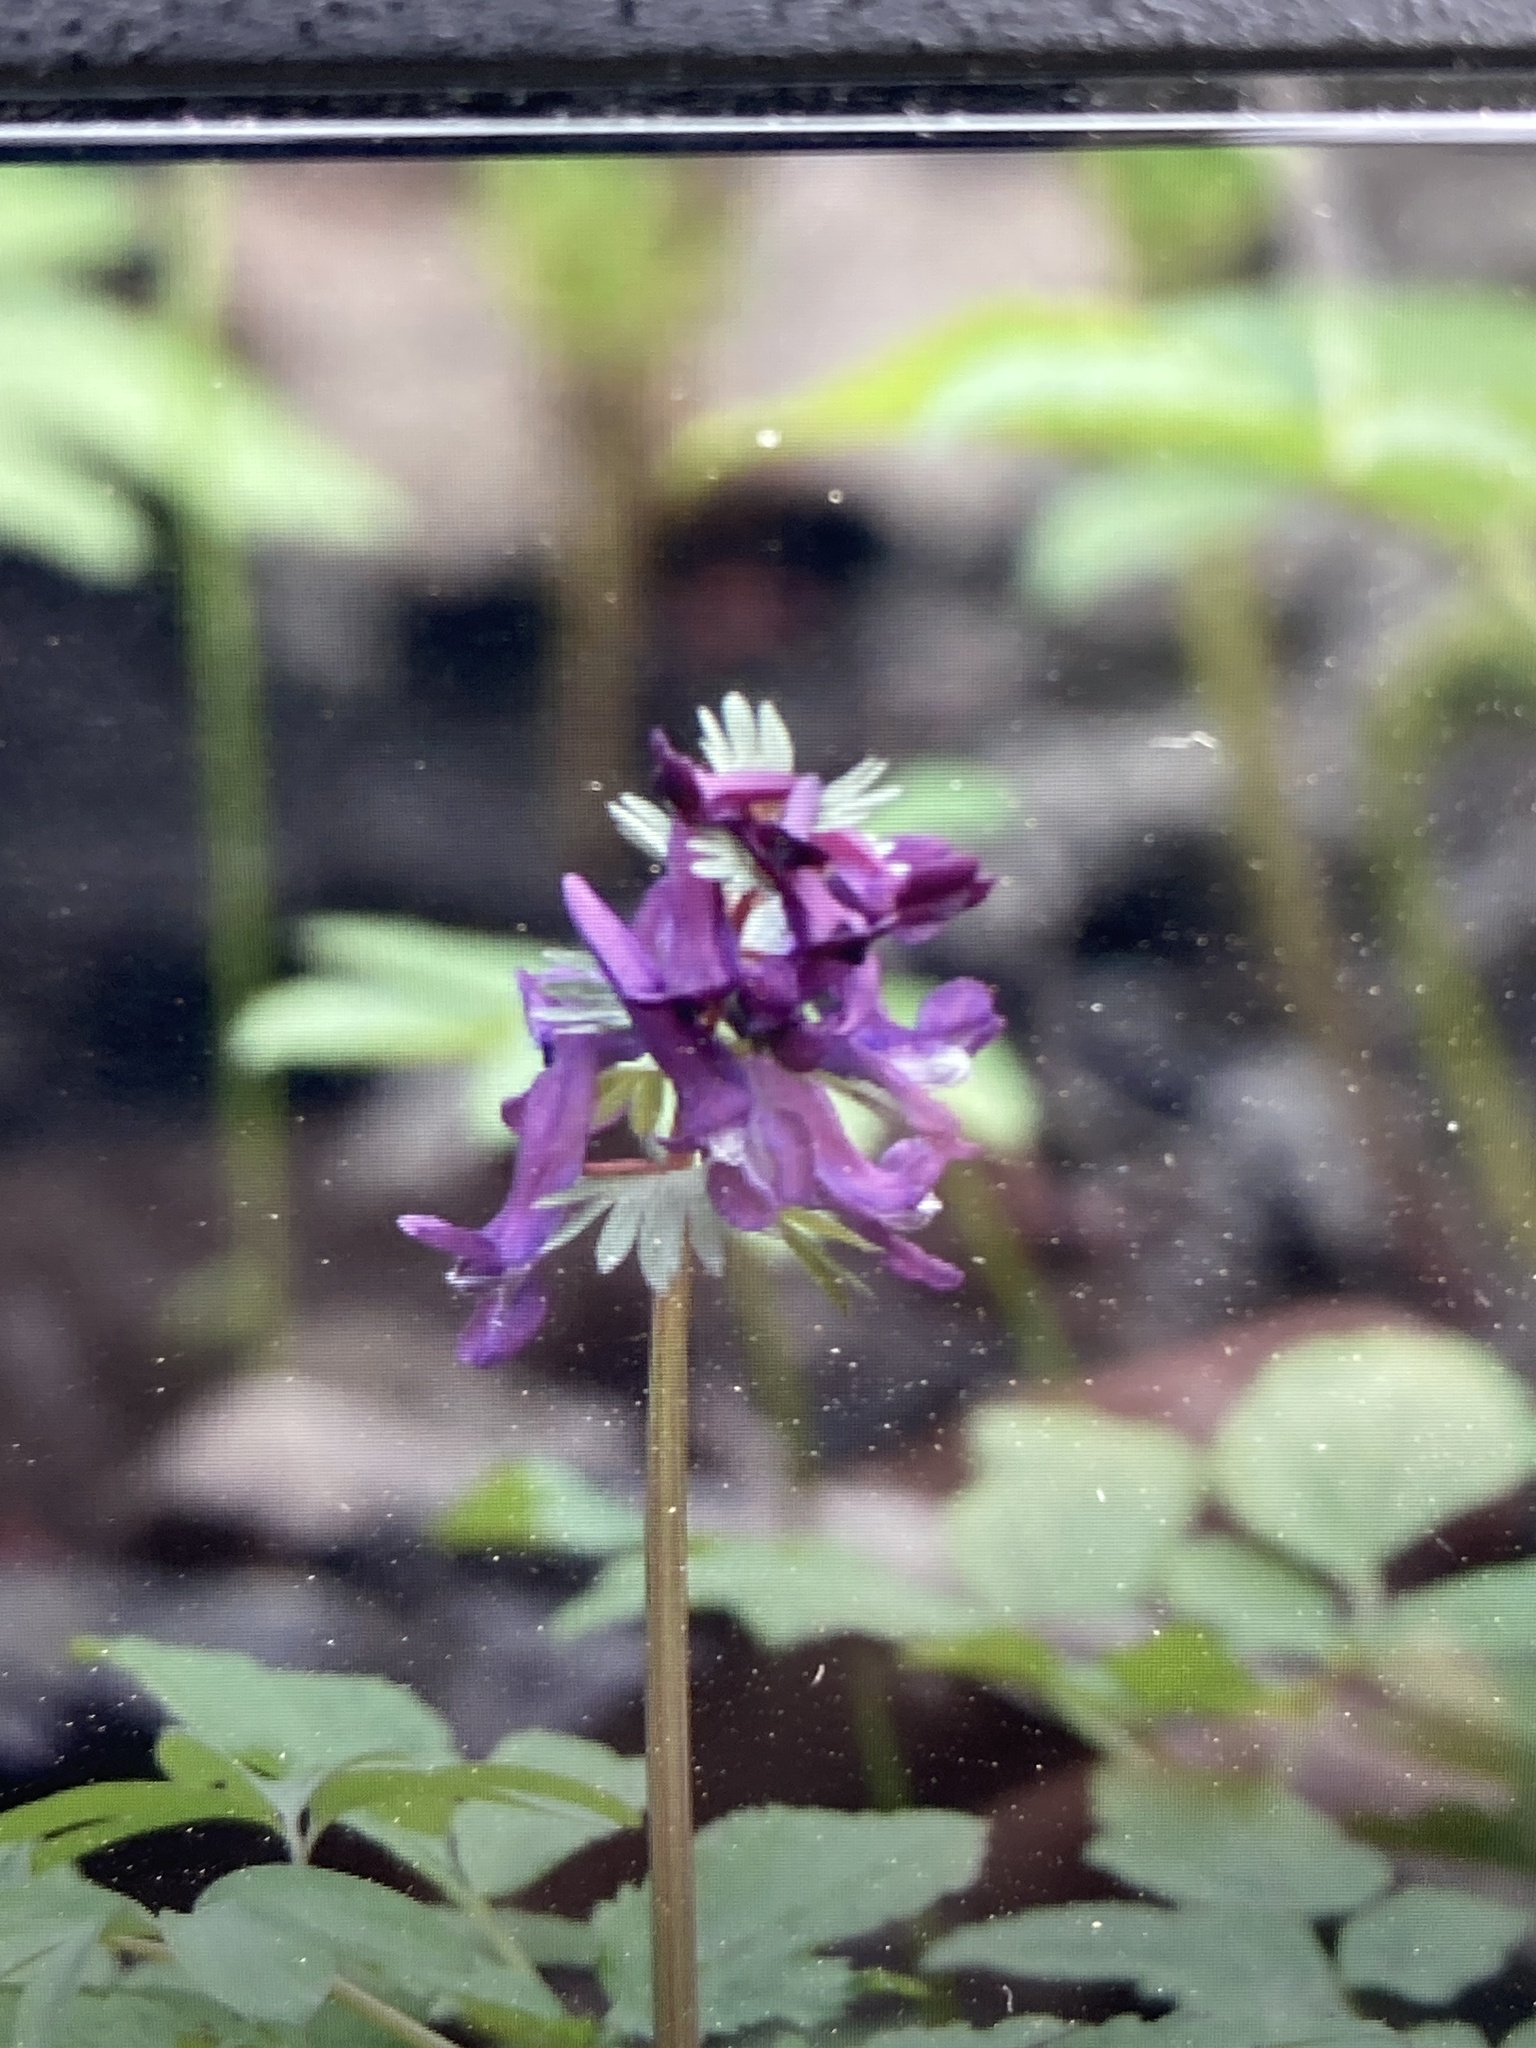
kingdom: Plantae
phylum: Tracheophyta
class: Magnoliopsida
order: Ranunculales
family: Papaveraceae
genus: Corydalis
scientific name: Corydalis solida
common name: Bird-in-a-bush
